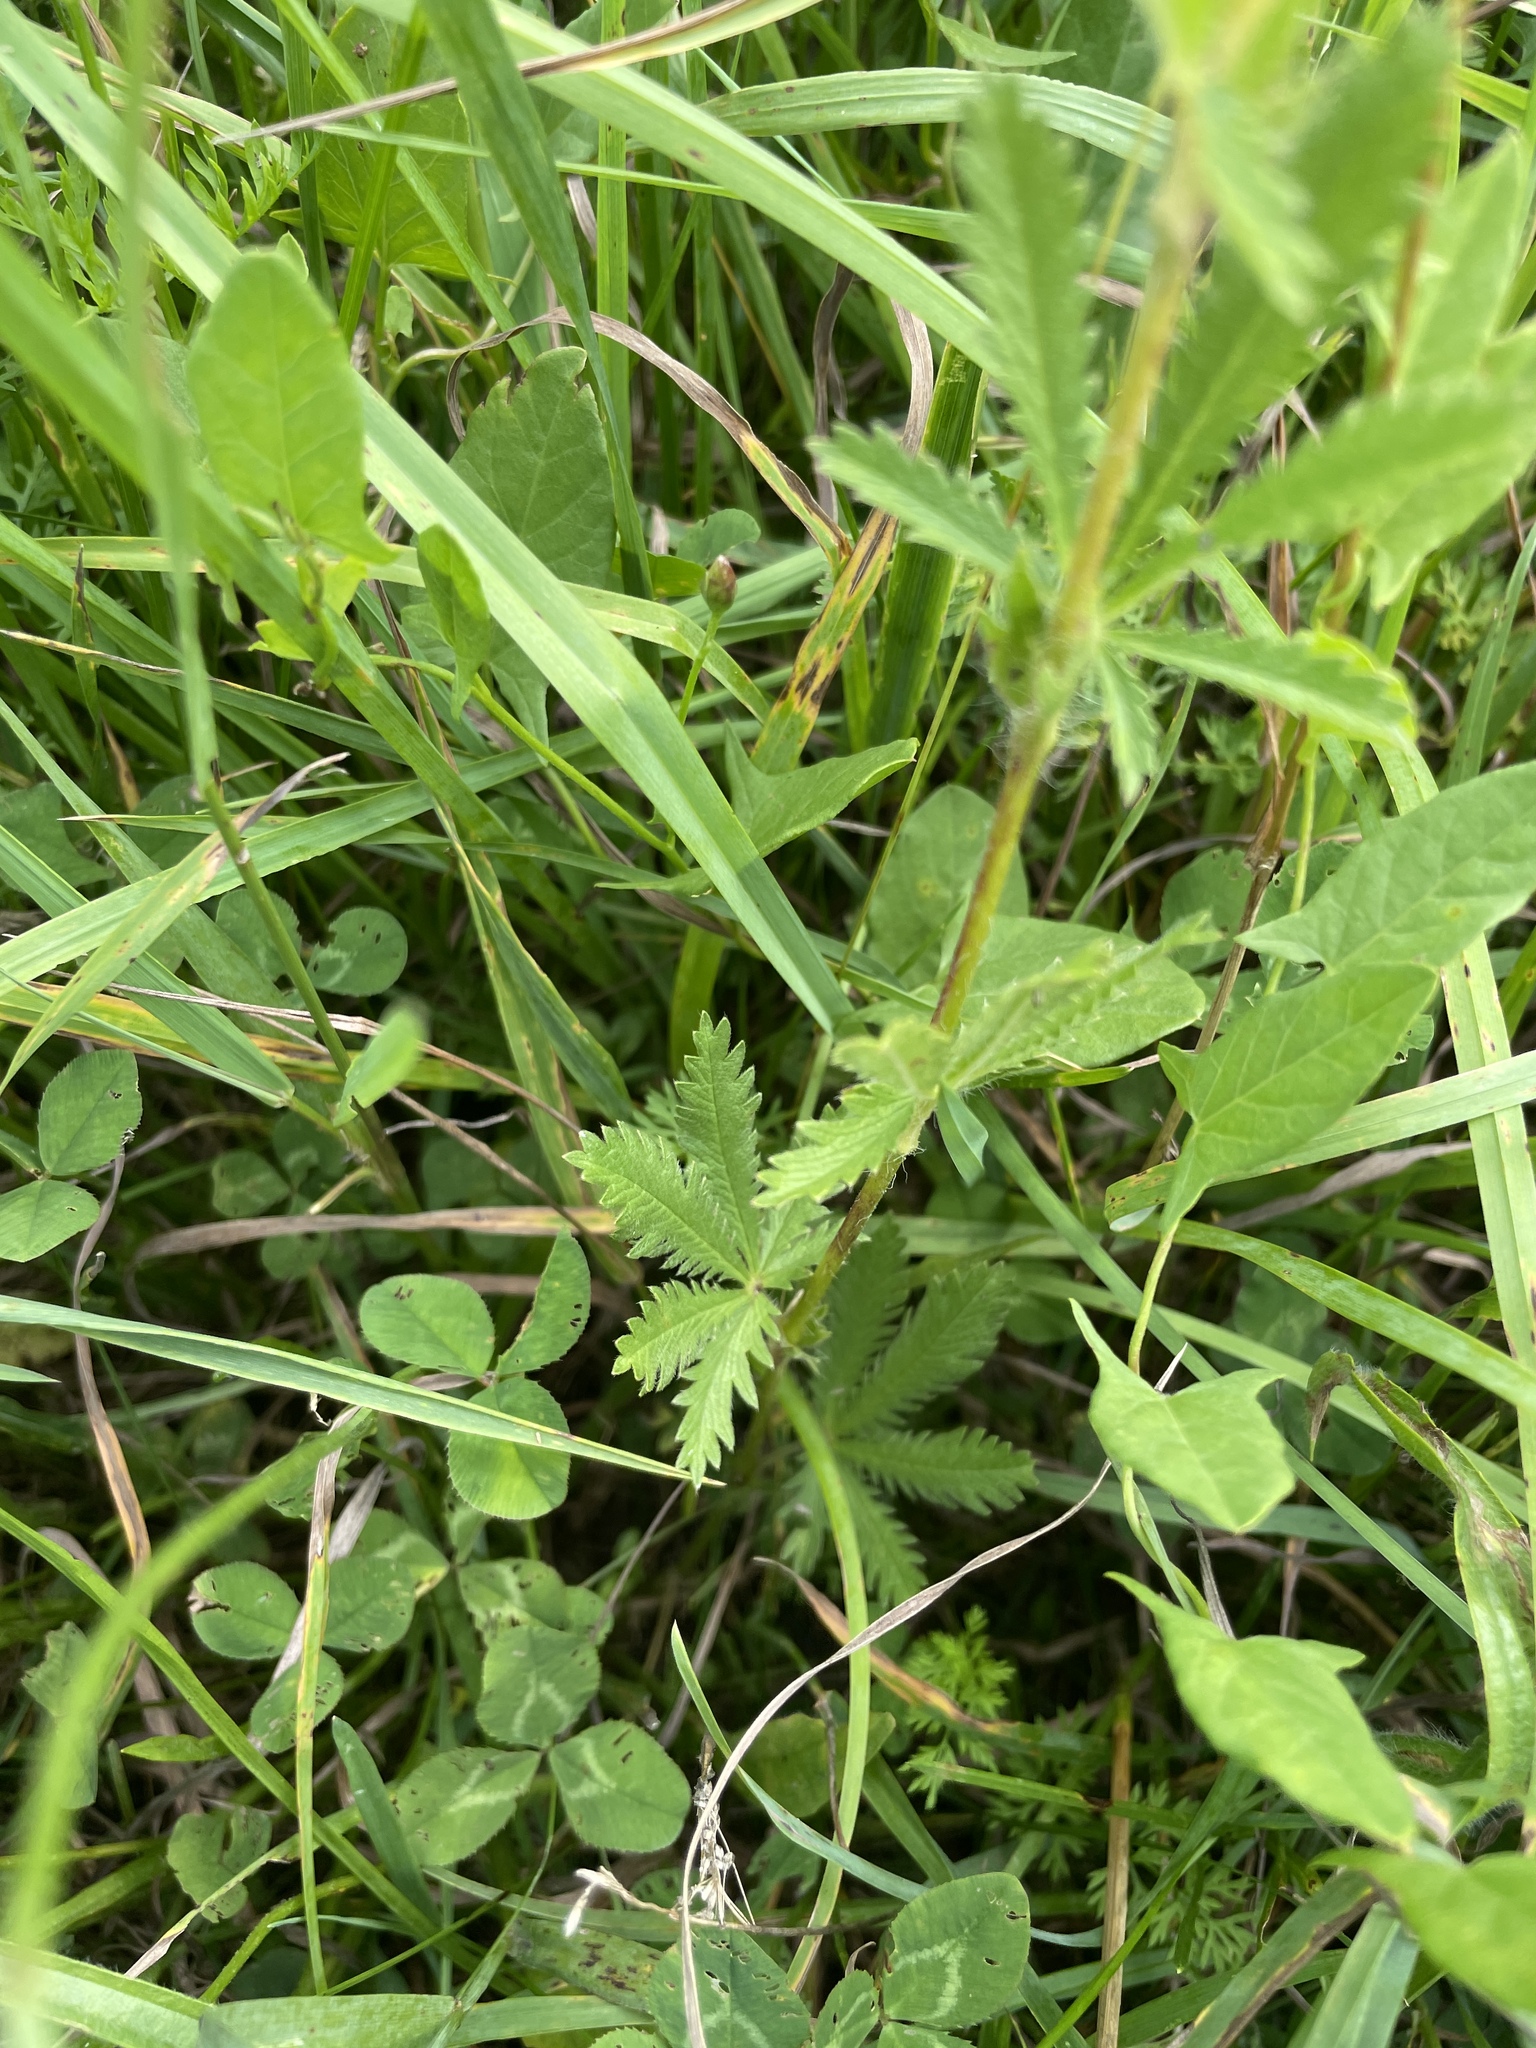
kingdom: Plantae
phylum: Tracheophyta
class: Magnoliopsida
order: Rosales
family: Rosaceae
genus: Potentilla
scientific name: Potentilla recta
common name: Sulphur cinquefoil
